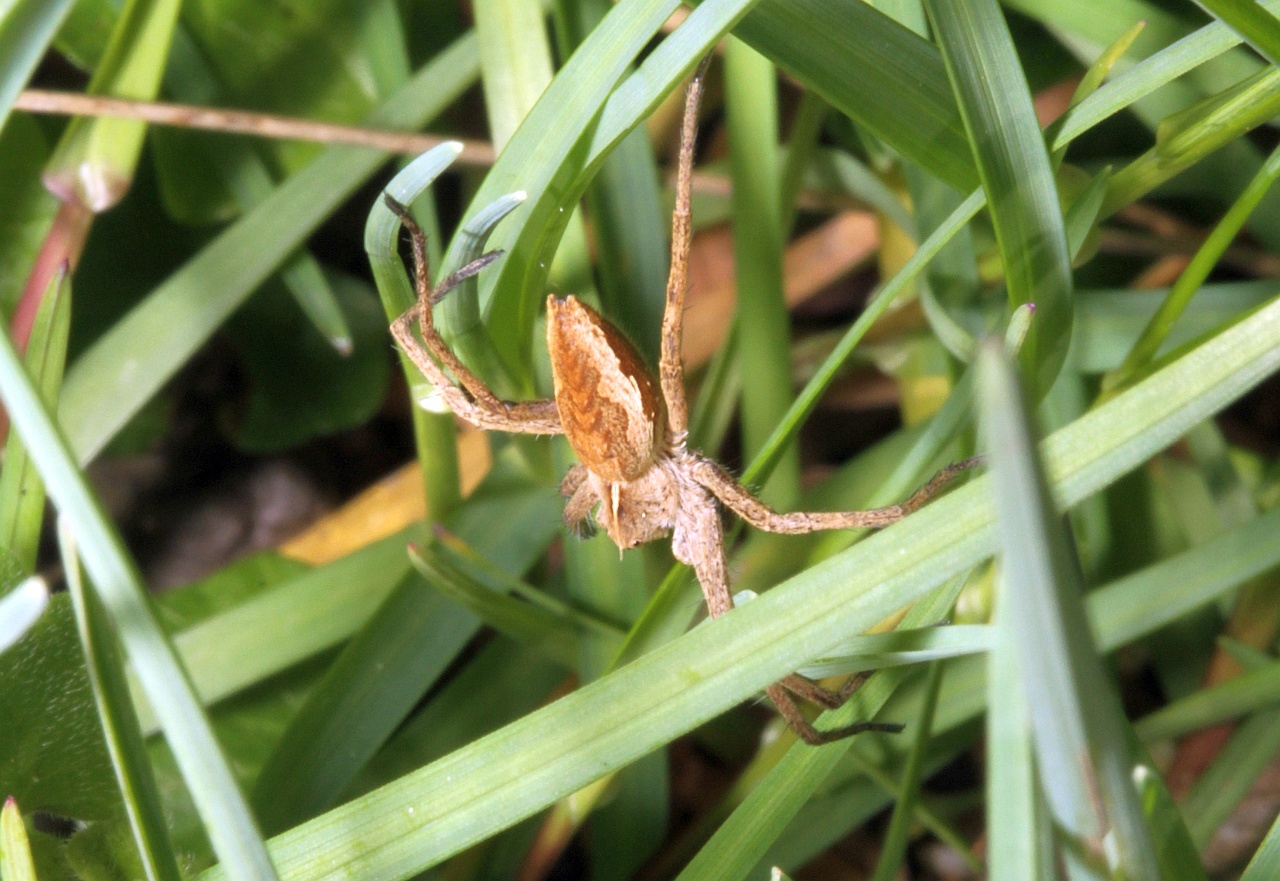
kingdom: Animalia
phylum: Arthropoda
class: Arachnida
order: Araneae
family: Pisauridae
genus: Pisaura
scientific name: Pisaura mirabilis
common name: Tent spider
